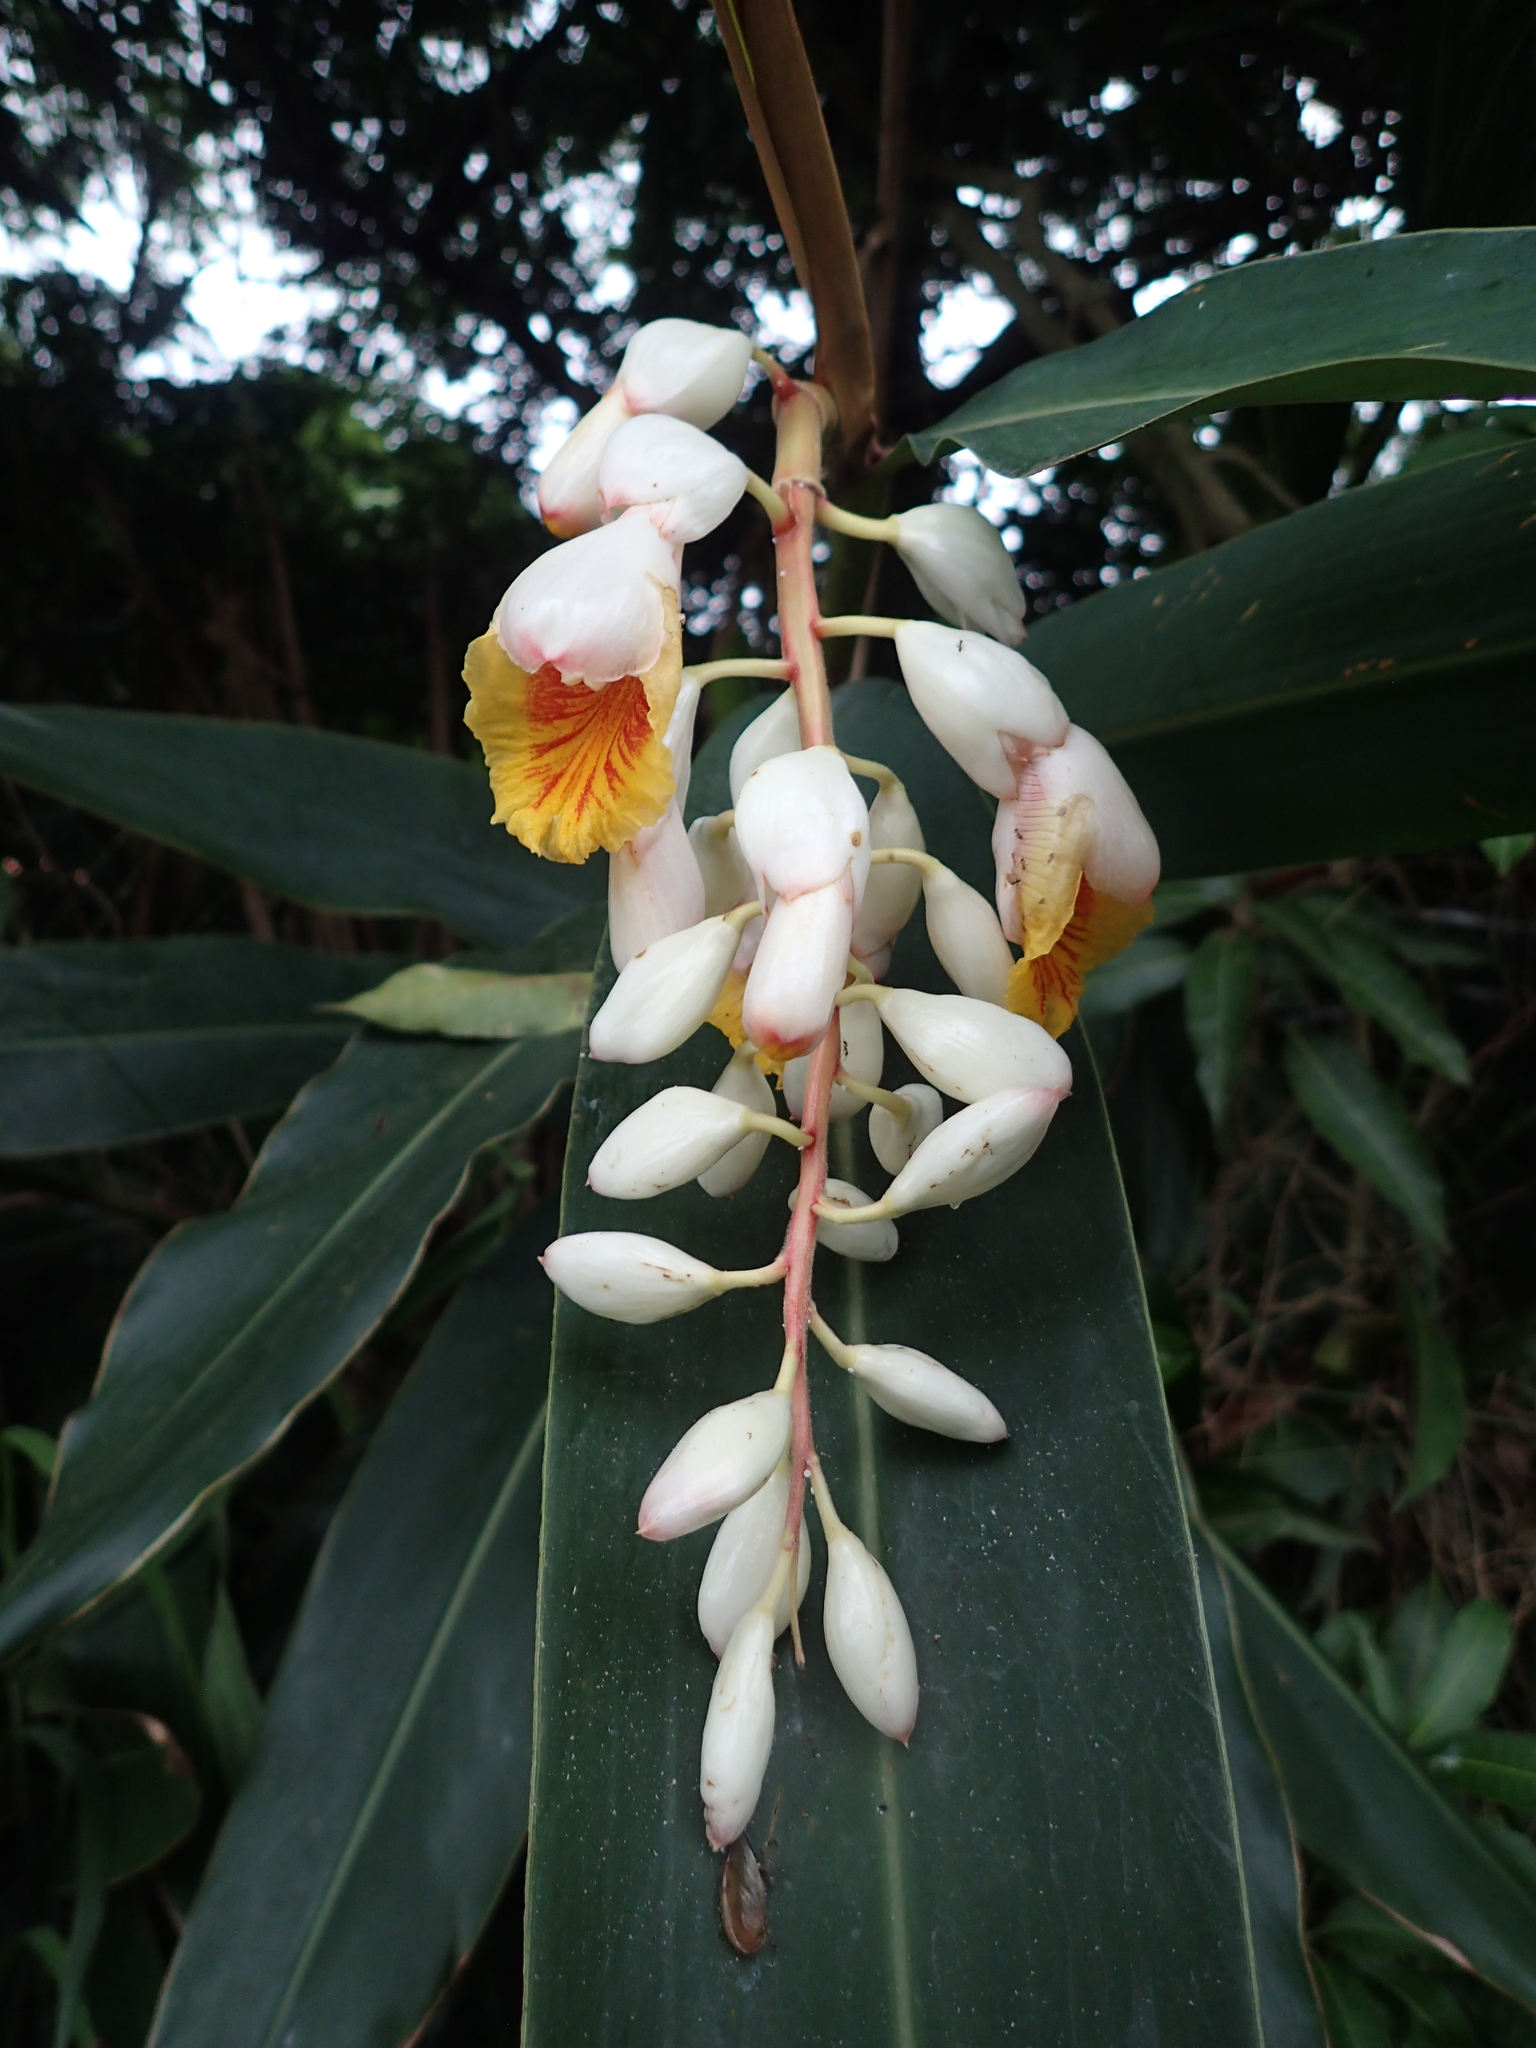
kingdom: Plantae
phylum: Tracheophyta
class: Liliopsida
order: Zingiberales
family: Zingiberaceae
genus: Alpinia
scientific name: Alpinia zerumbet
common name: Shellplant
